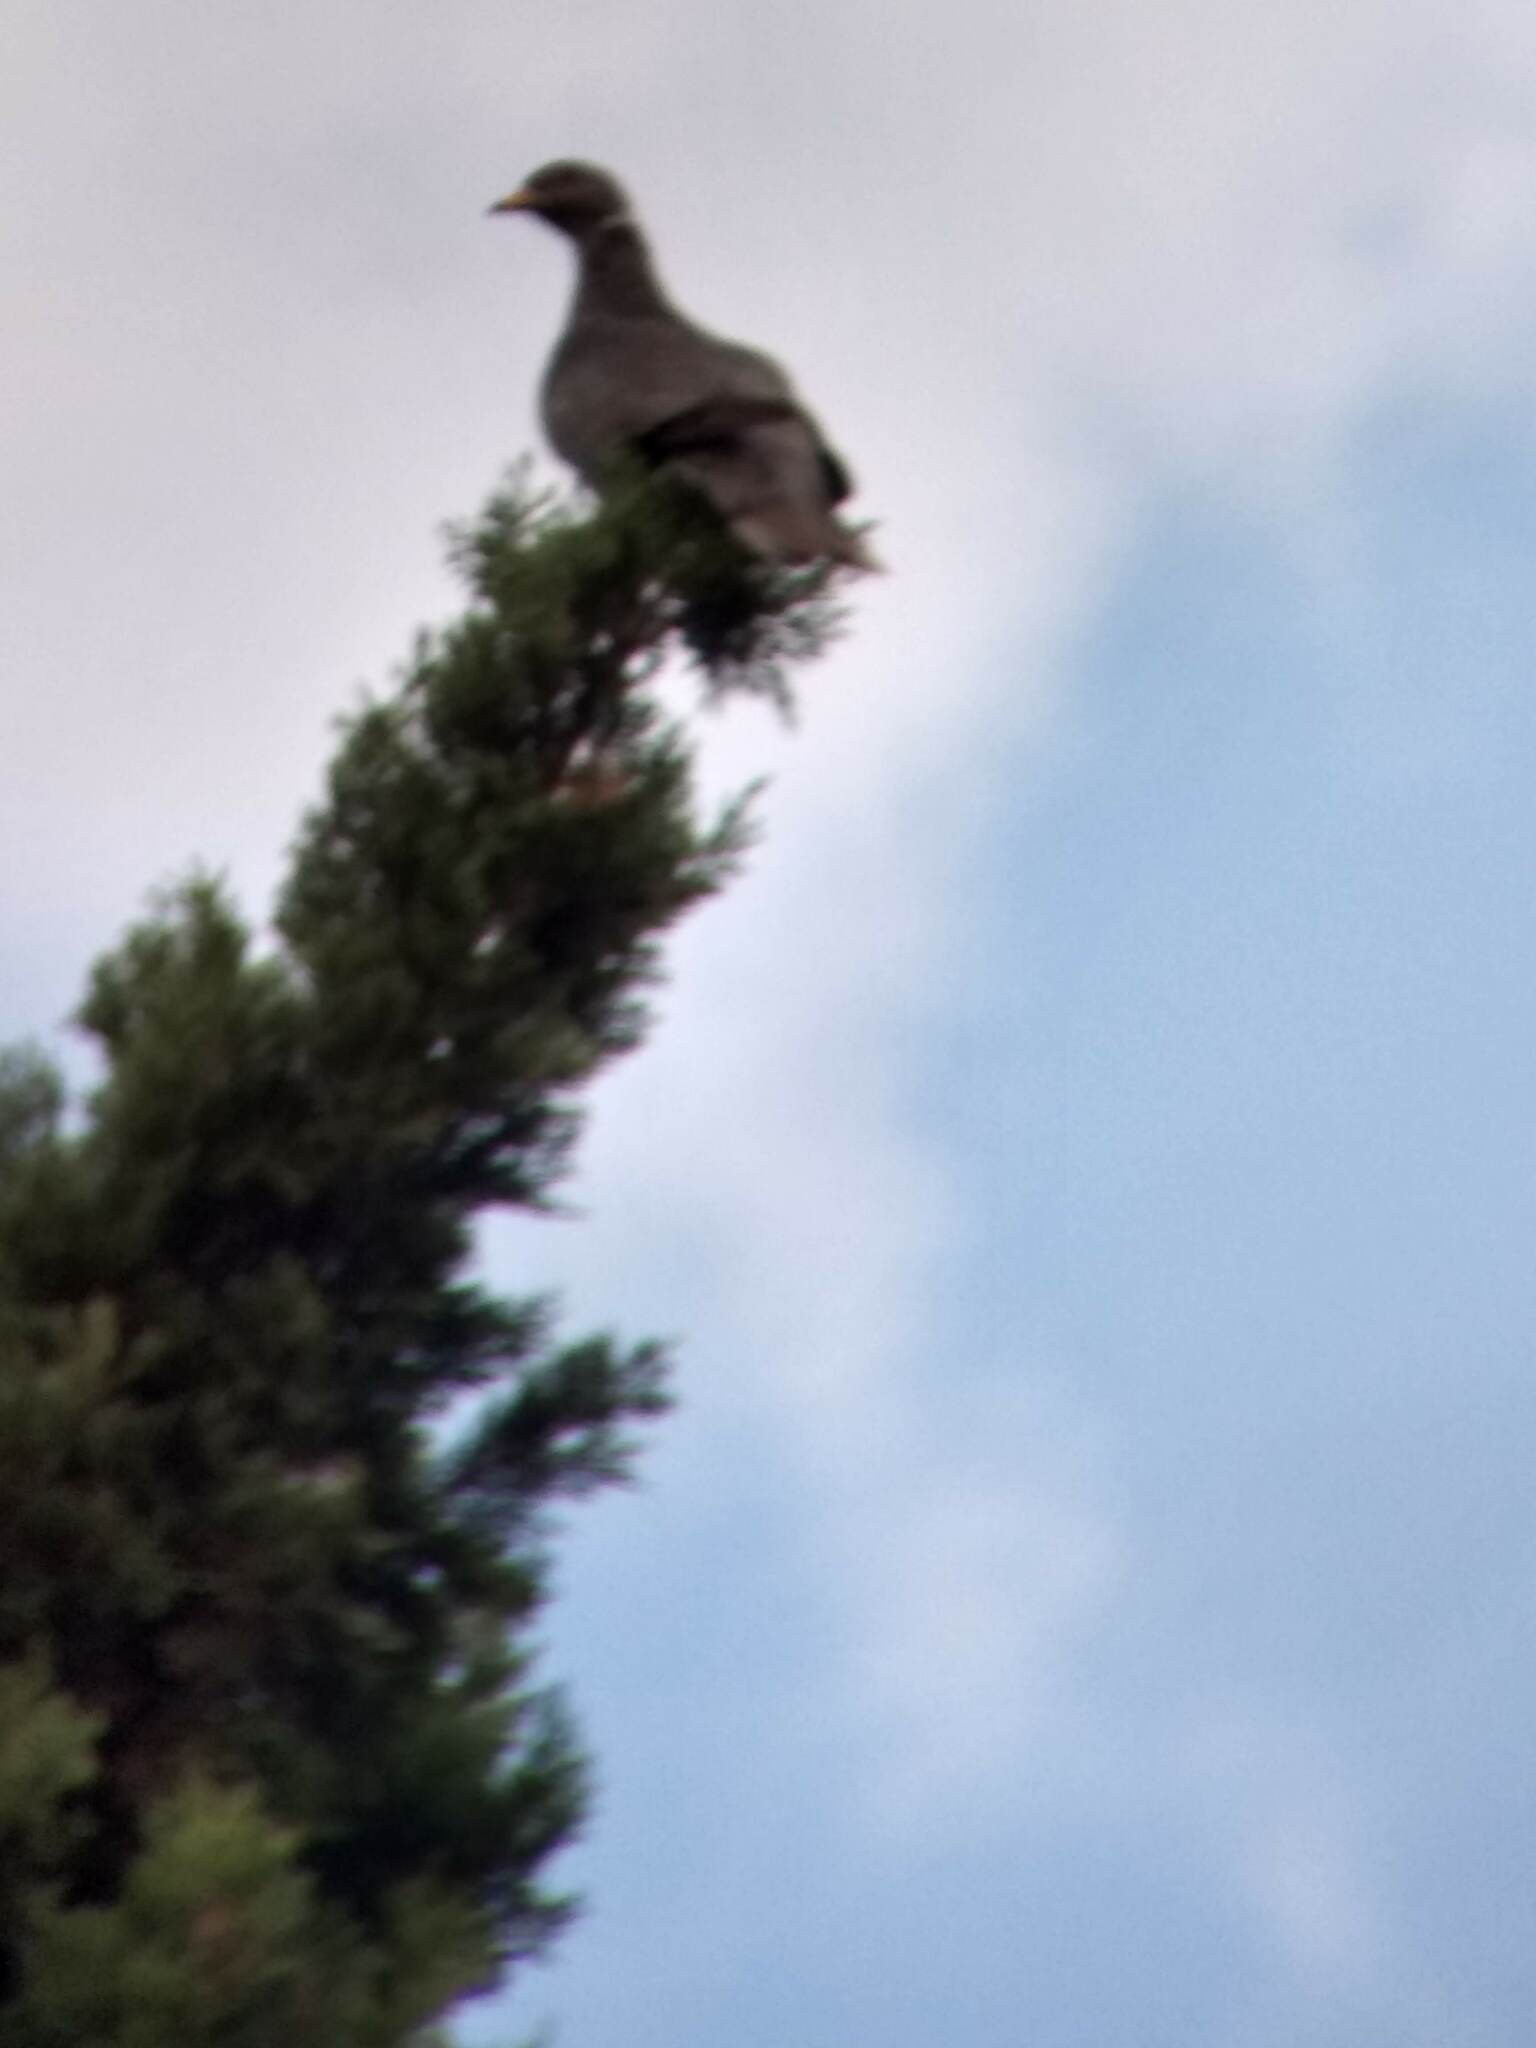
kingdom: Animalia
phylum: Chordata
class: Aves
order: Columbiformes
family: Columbidae
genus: Patagioenas
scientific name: Patagioenas fasciata
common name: Band-tailed pigeon
